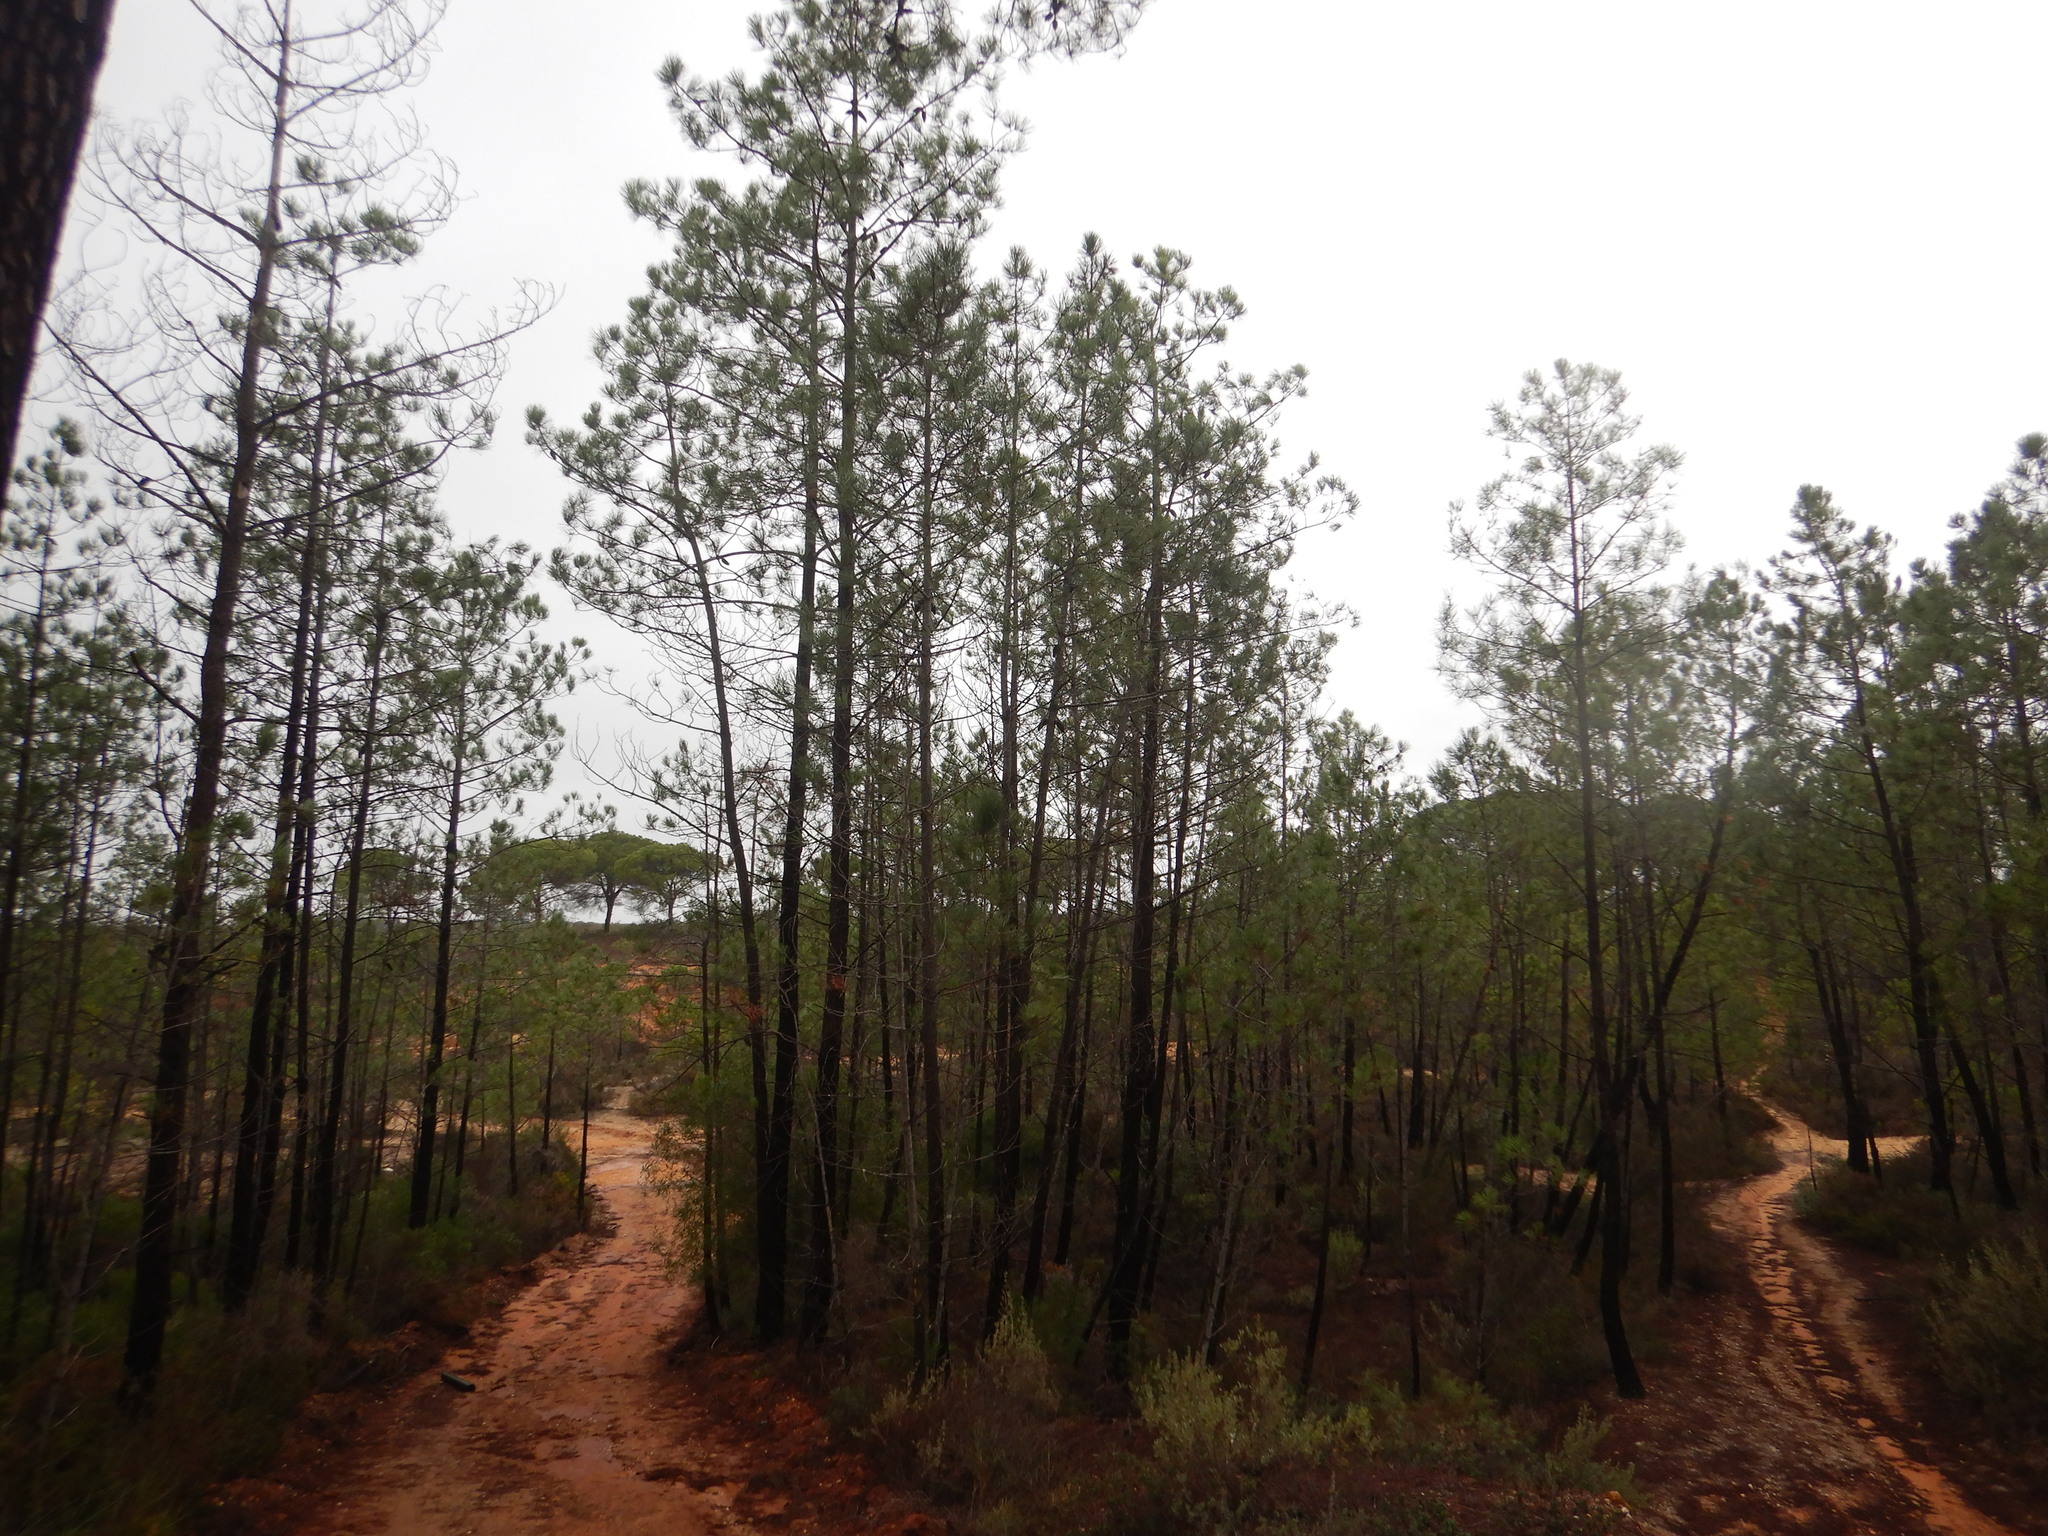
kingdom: Plantae
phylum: Tracheophyta
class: Pinopsida
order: Pinales
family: Pinaceae
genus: Pinus
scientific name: Pinus pinaster
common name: Maritime pine
